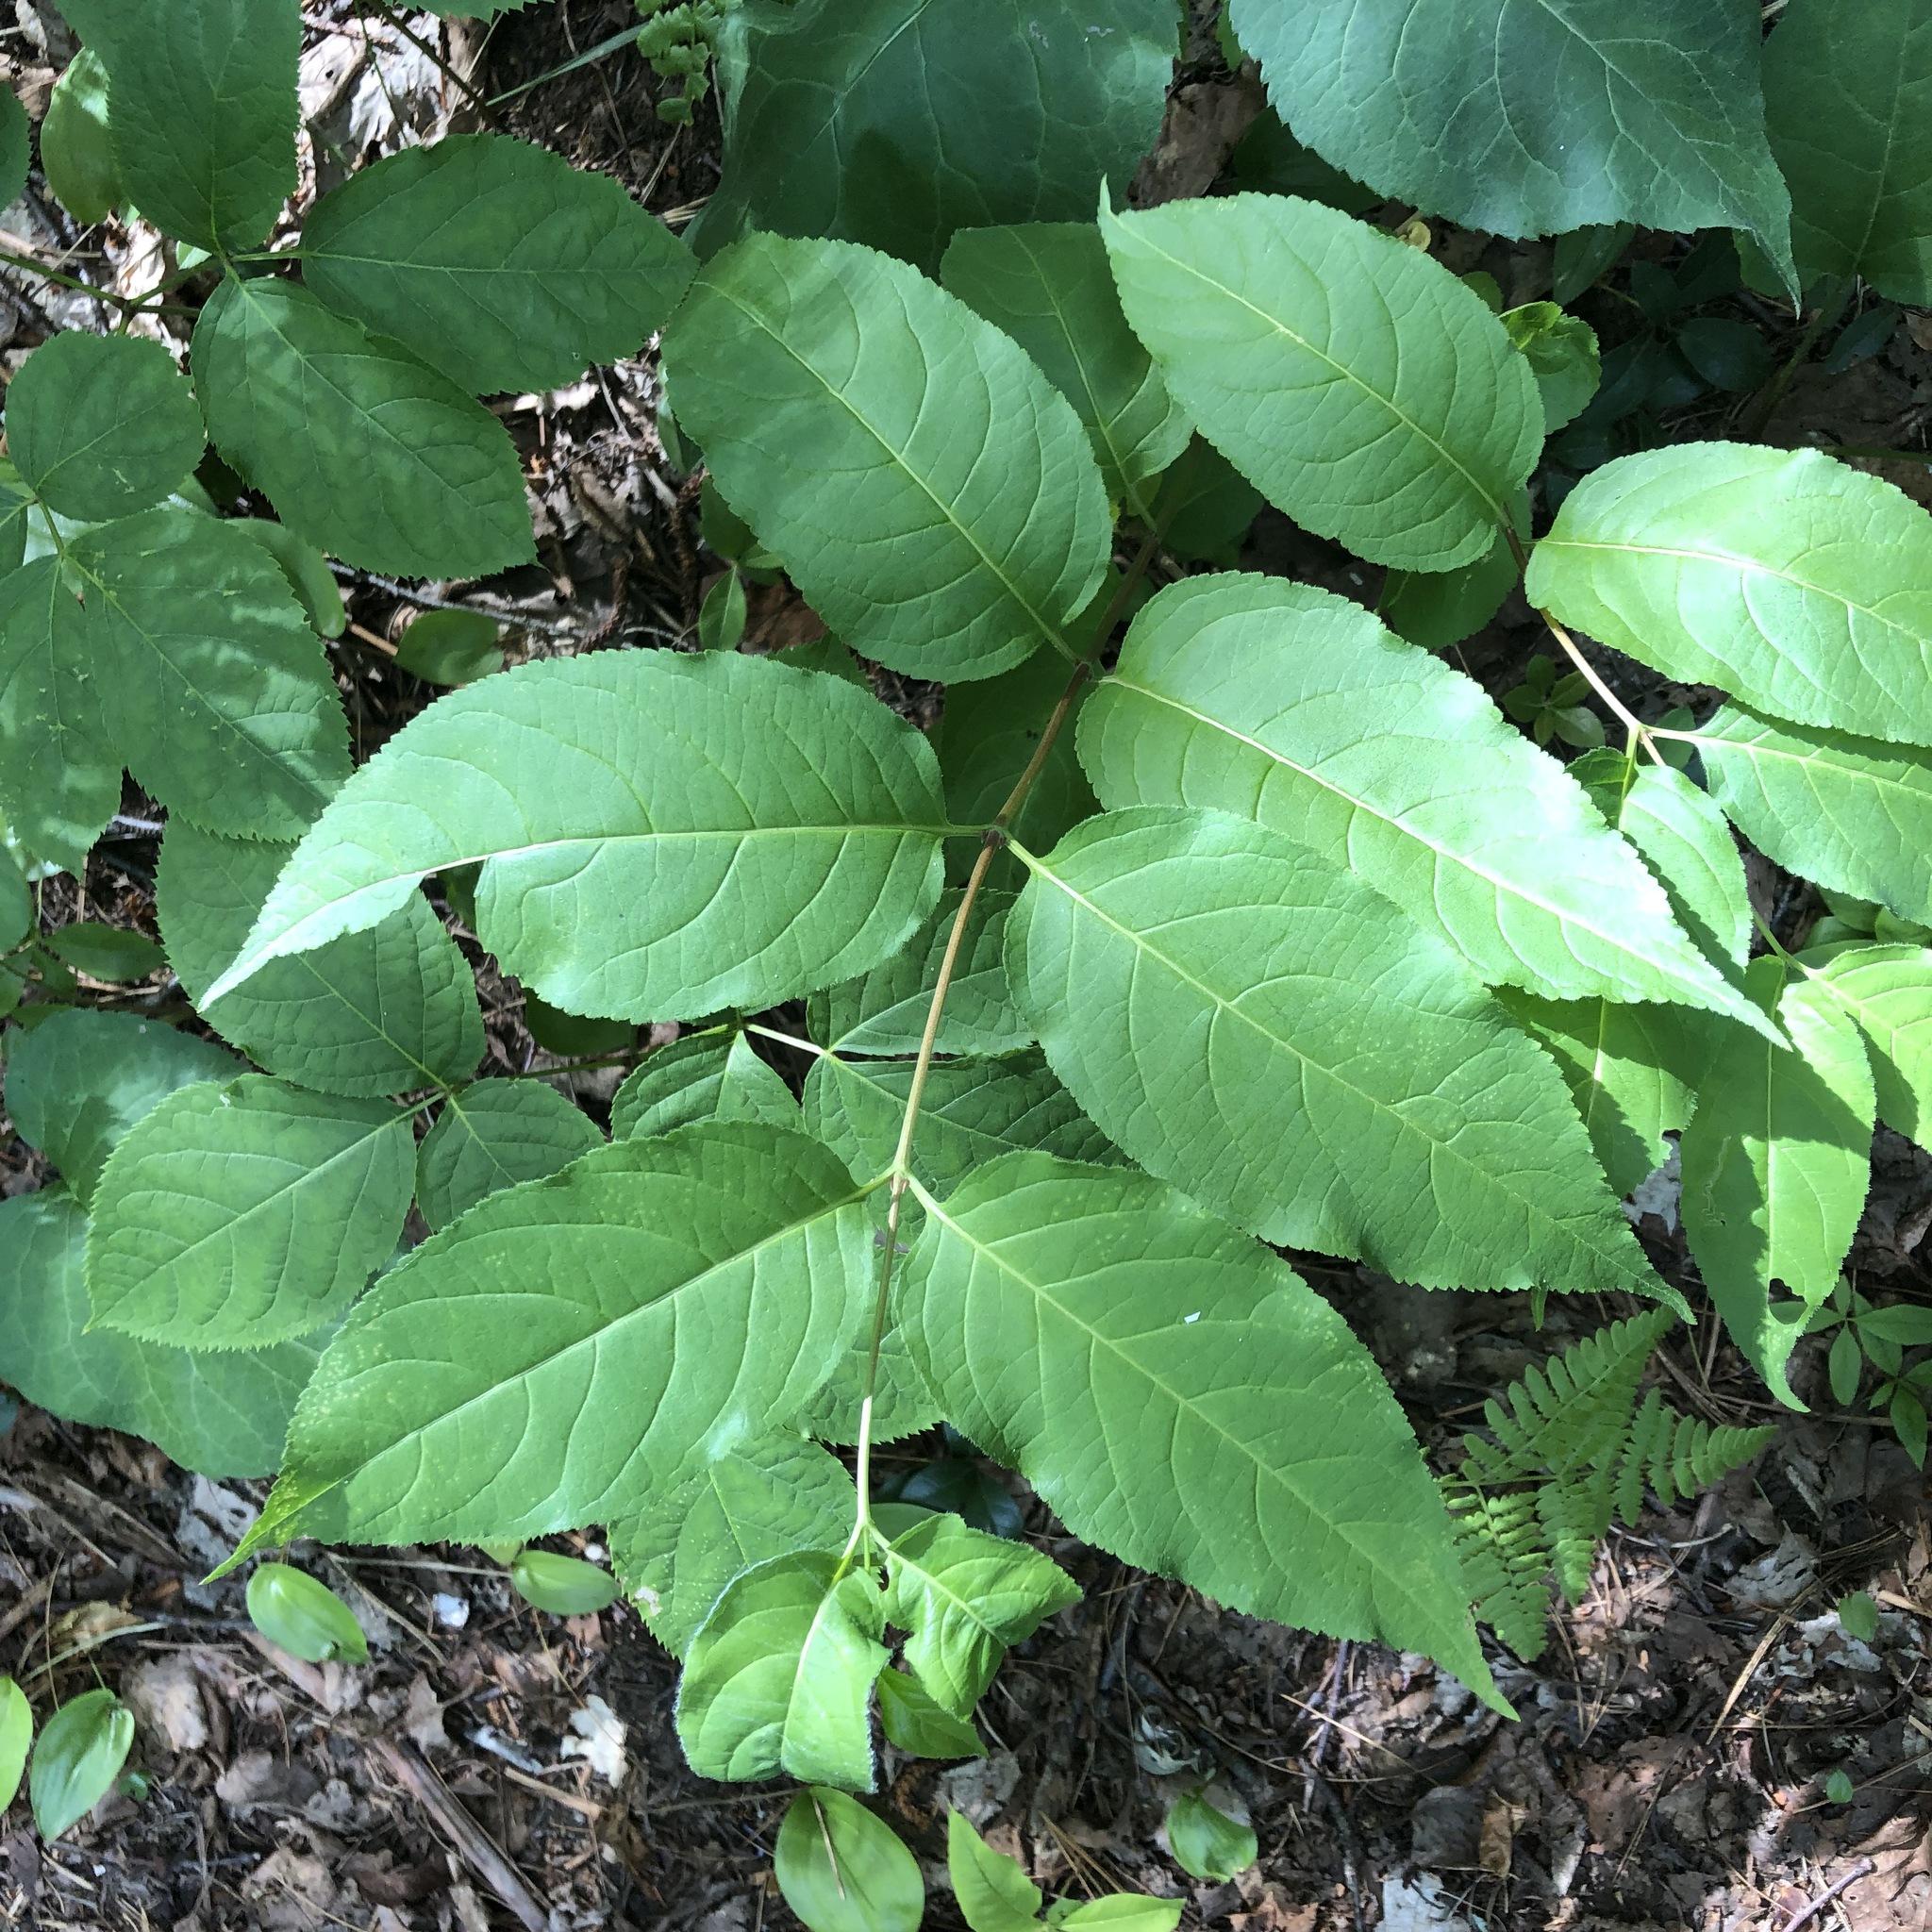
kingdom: Plantae
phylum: Tracheophyta
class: Magnoliopsida
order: Dipsacales
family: Caprifoliaceae
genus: Diervilla
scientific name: Diervilla lonicera
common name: Bush-honeysuckle
